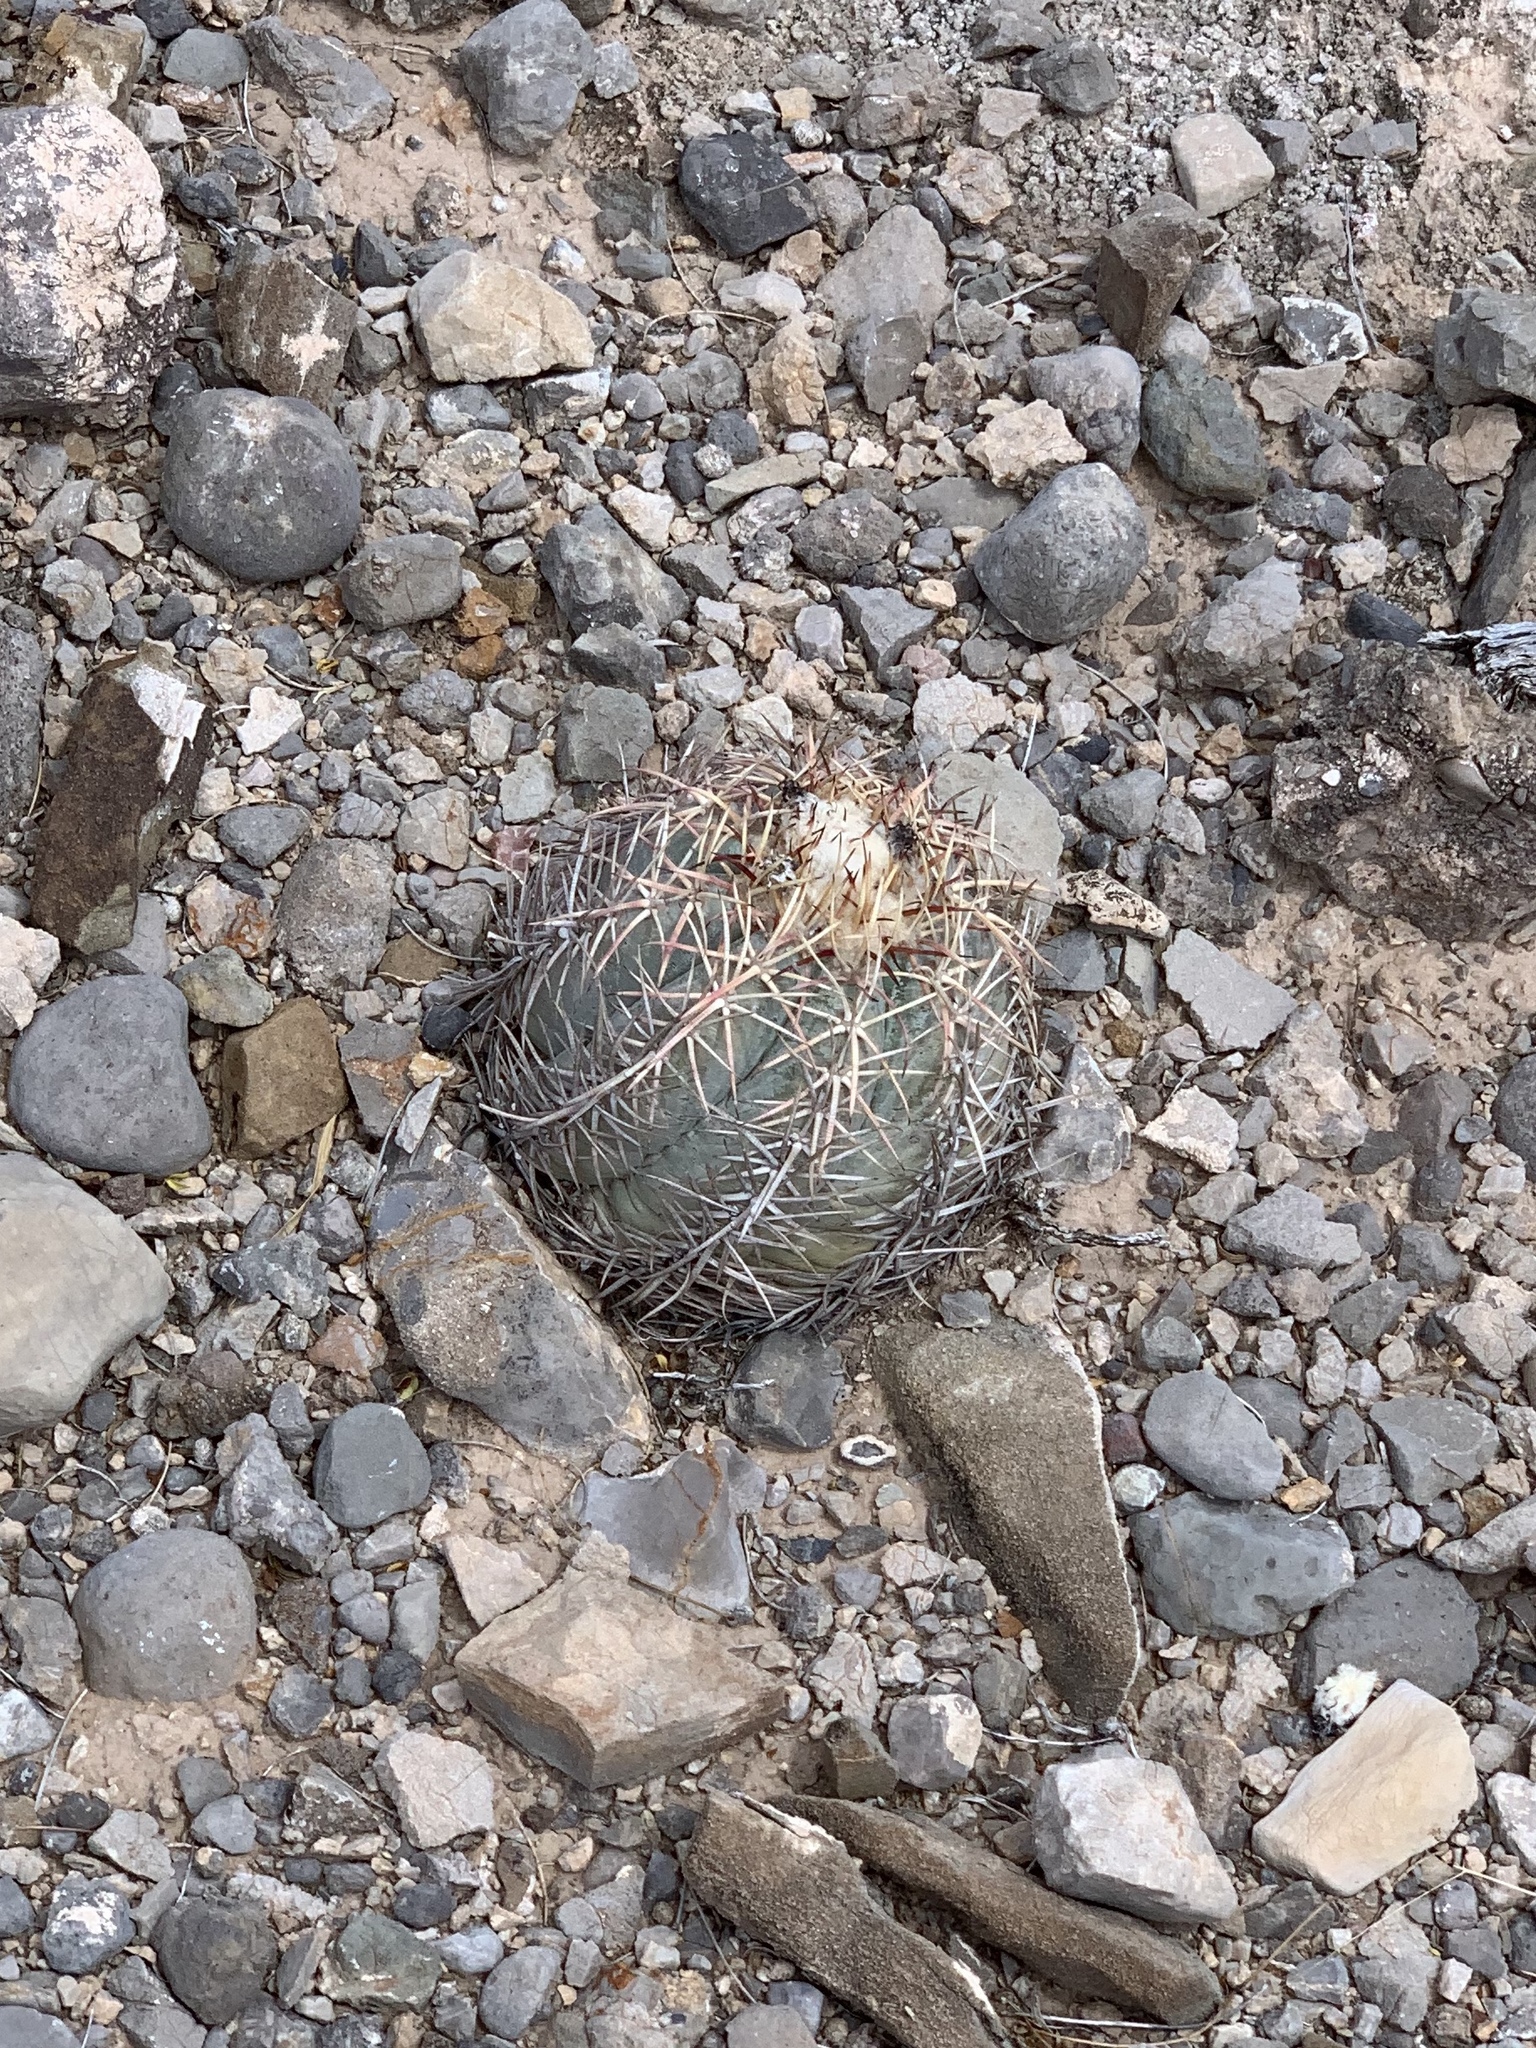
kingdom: Plantae
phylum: Tracheophyta
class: Magnoliopsida
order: Caryophyllales
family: Cactaceae
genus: Echinocactus
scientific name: Echinocactus horizonthalonius
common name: Devilshead
